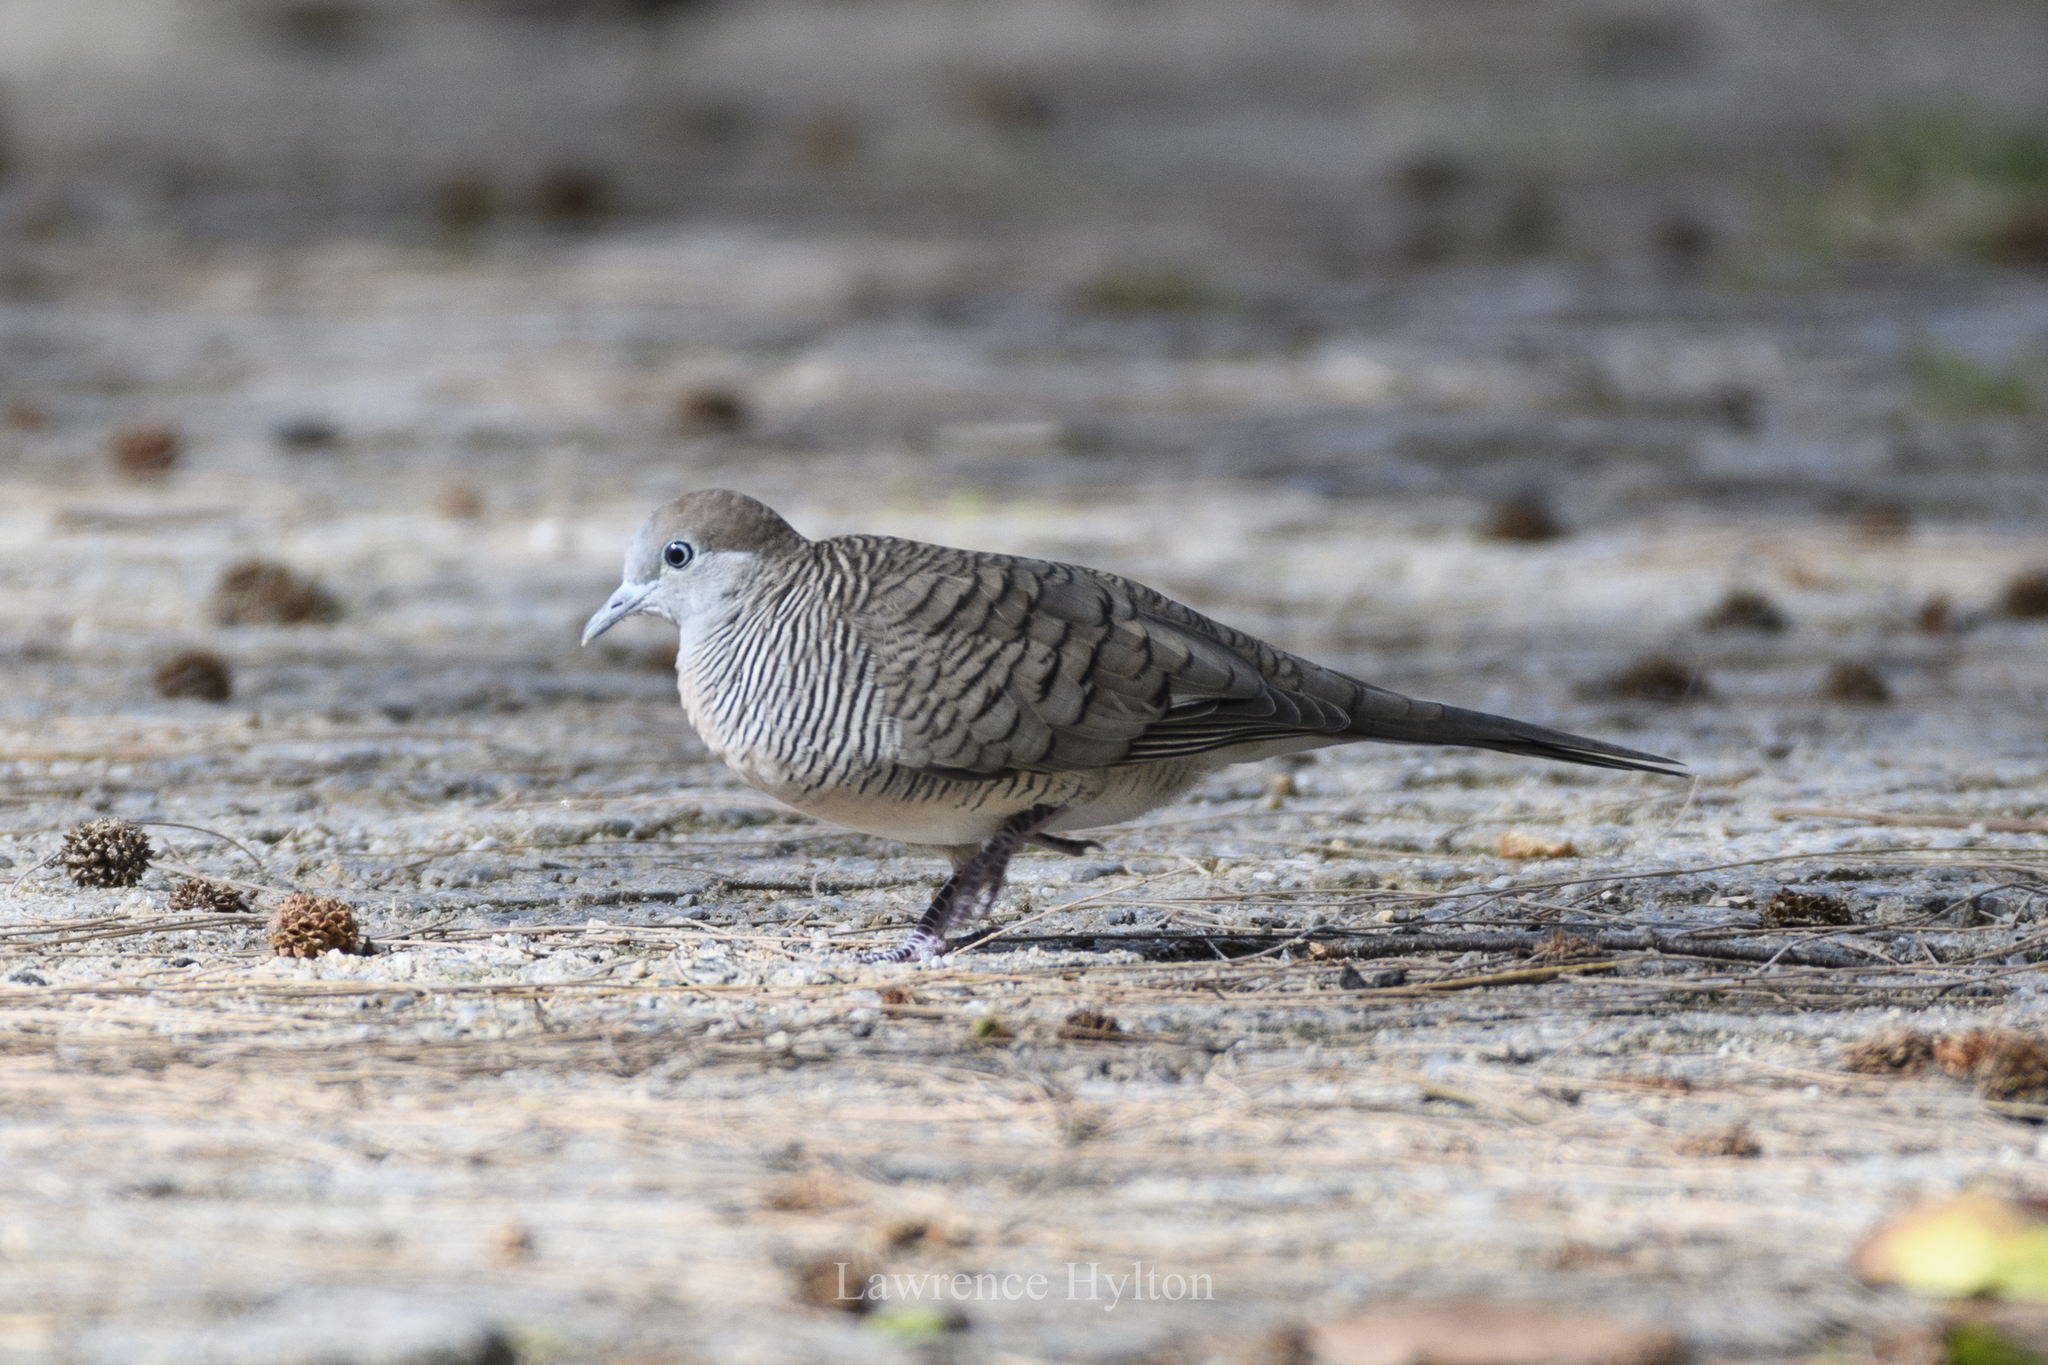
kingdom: Animalia
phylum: Chordata
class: Aves
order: Columbiformes
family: Columbidae
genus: Geopelia
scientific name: Geopelia striata
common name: Zebra dove
